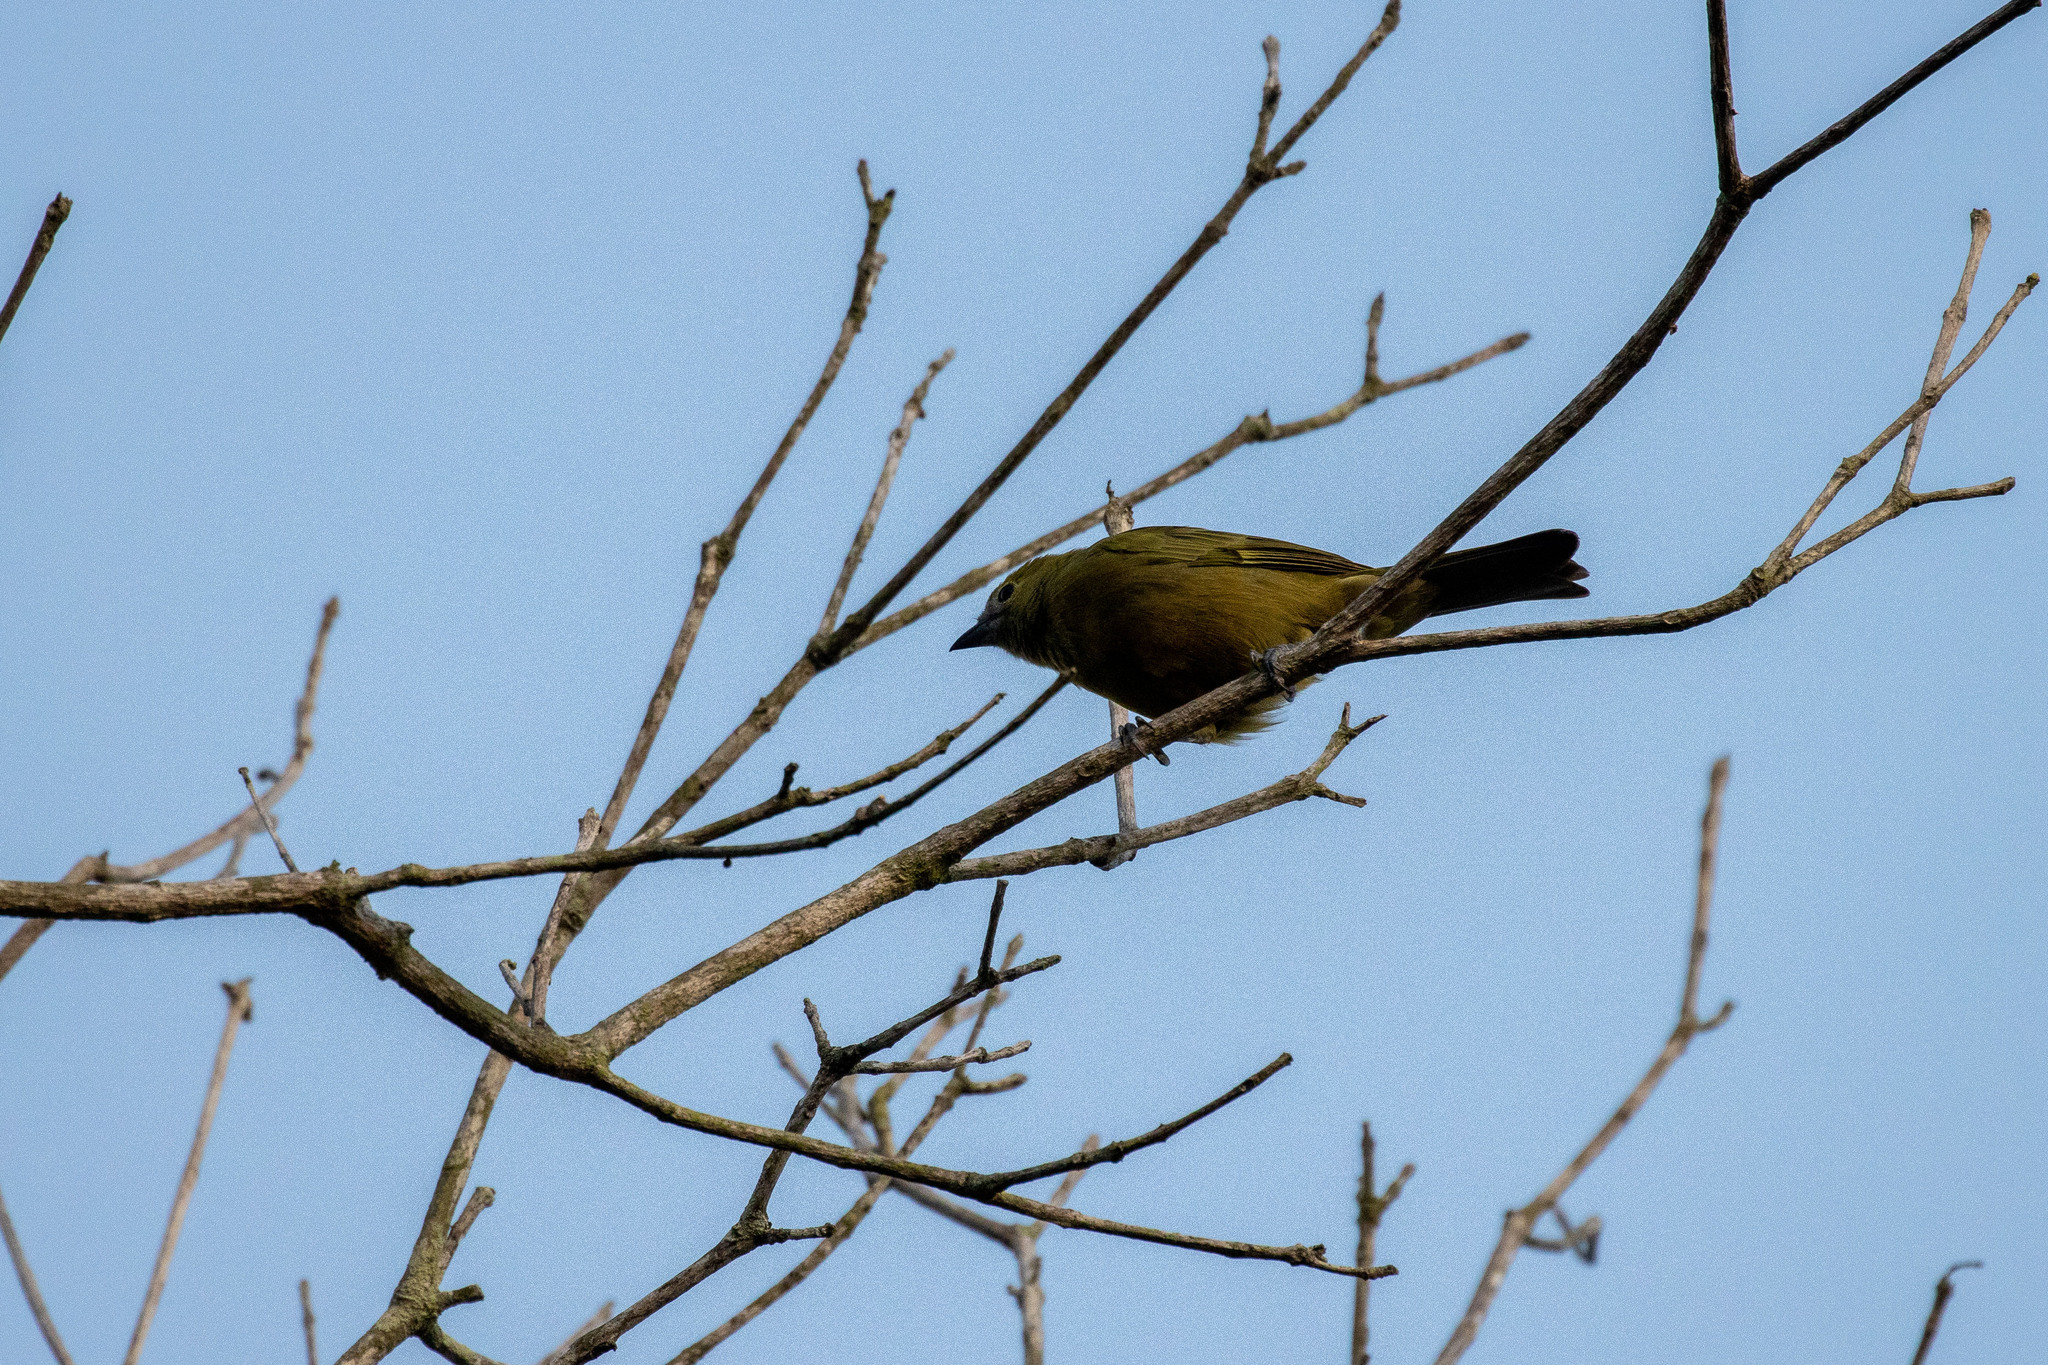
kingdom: Animalia
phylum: Chordata
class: Aves
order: Passeriformes
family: Thraupidae
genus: Thraupis
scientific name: Thraupis palmarum
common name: Palm tanager
